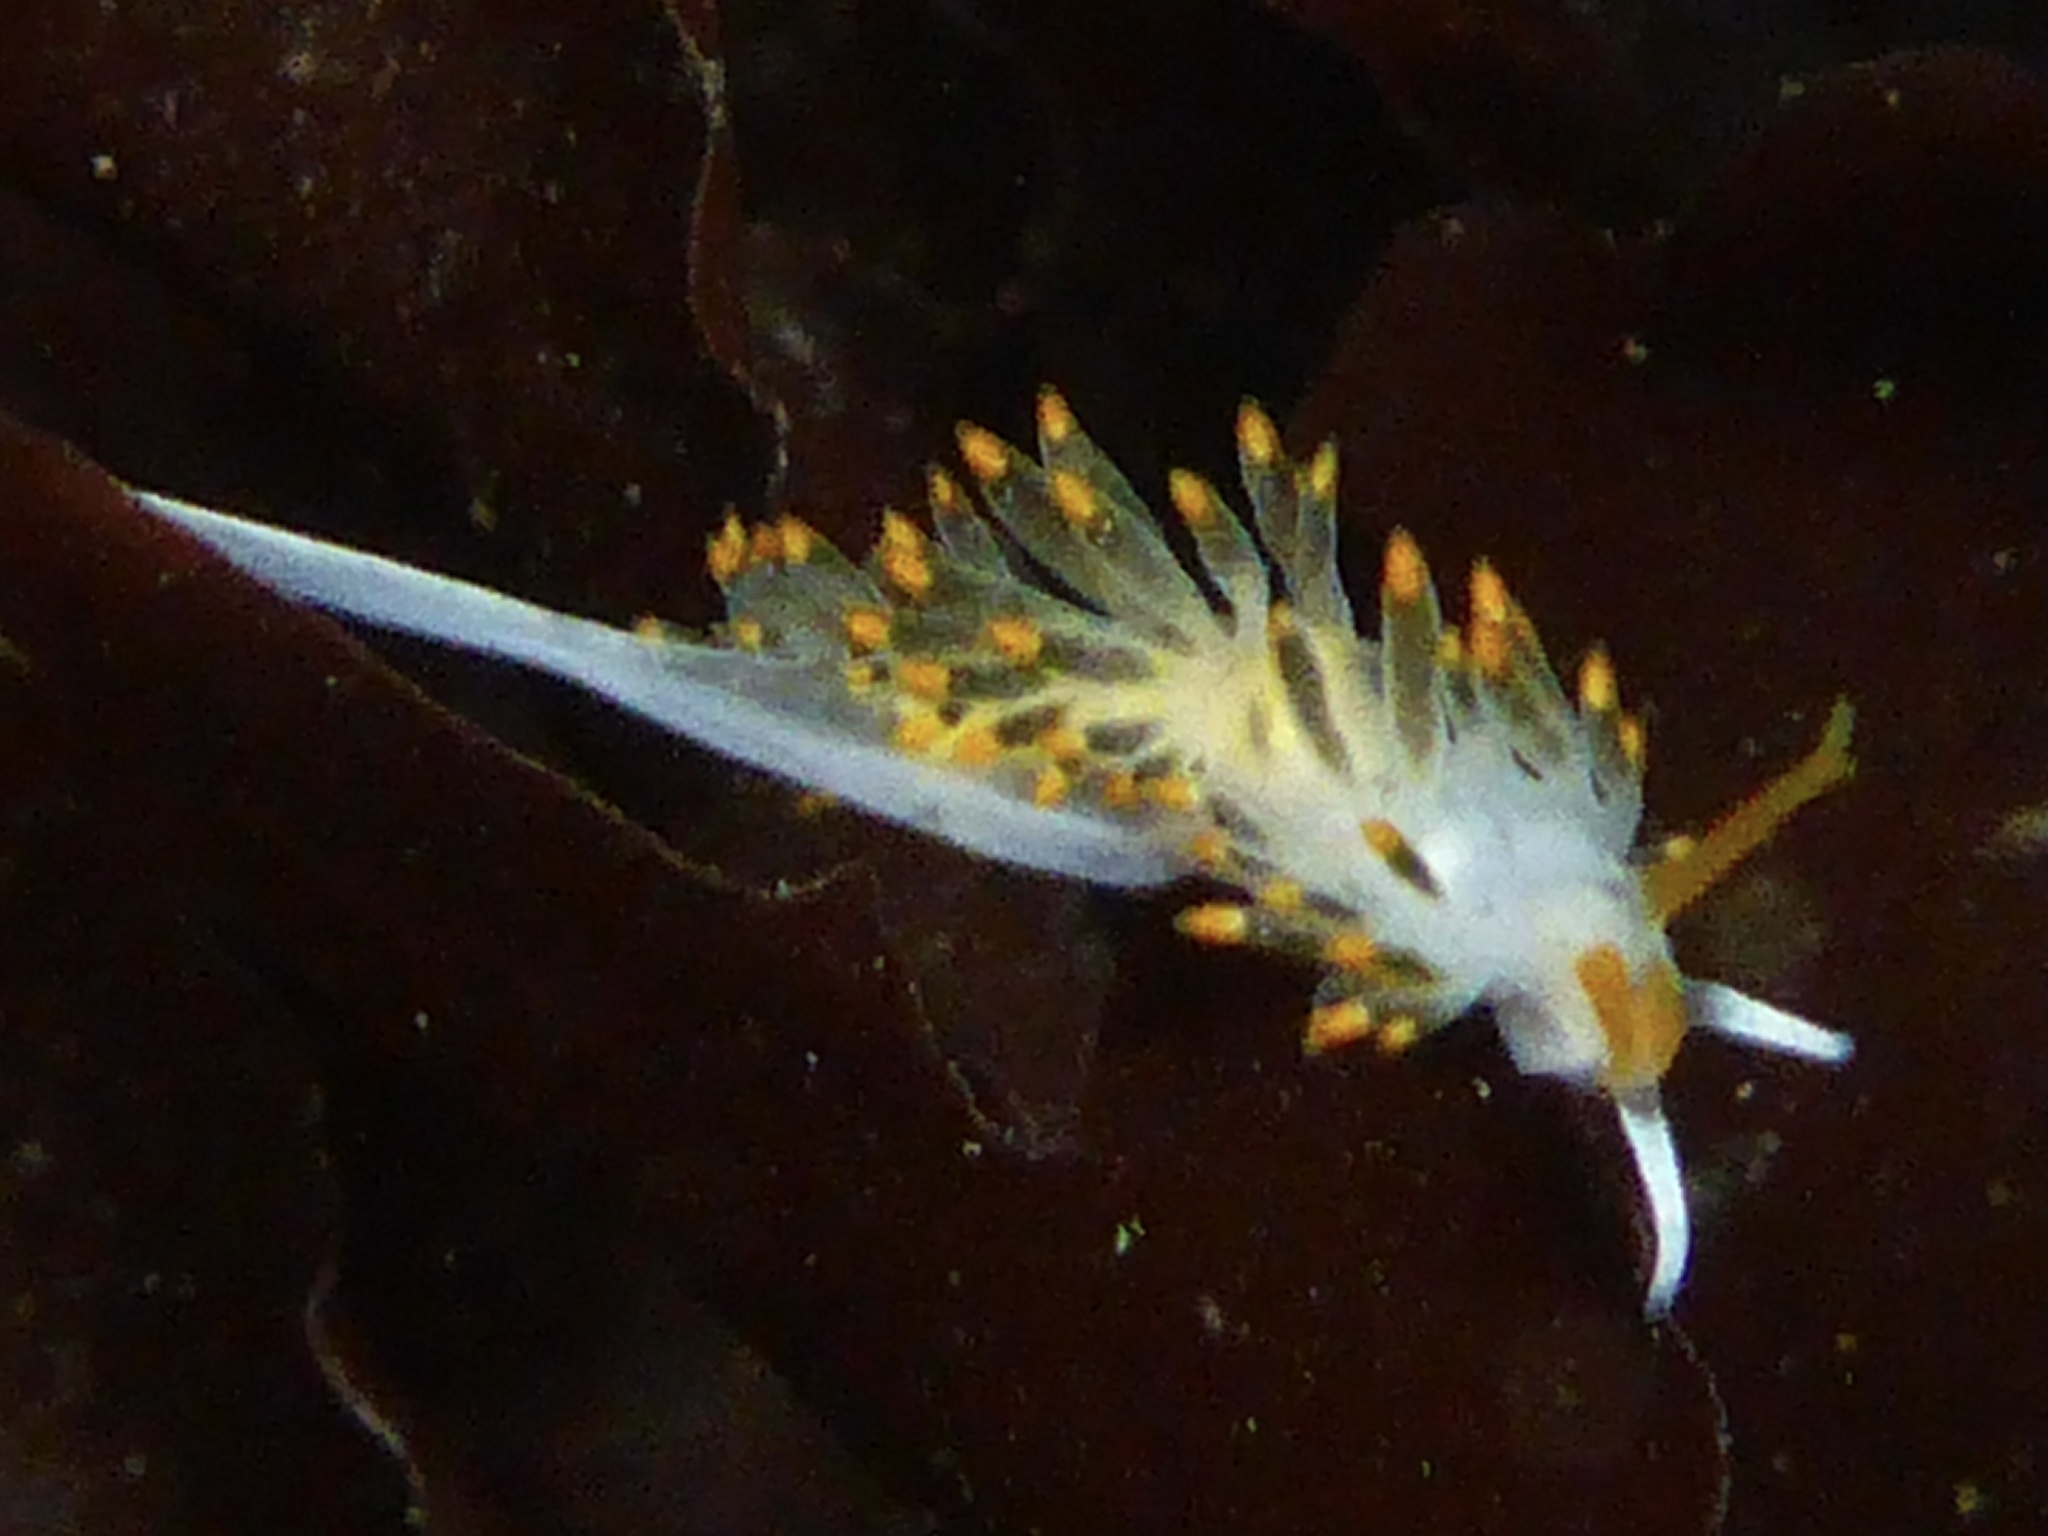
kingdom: Animalia
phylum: Mollusca
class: Gastropoda
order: Nudibranchia
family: Trinchesiidae
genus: Diaphoreolis
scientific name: Diaphoreolis lagunae
